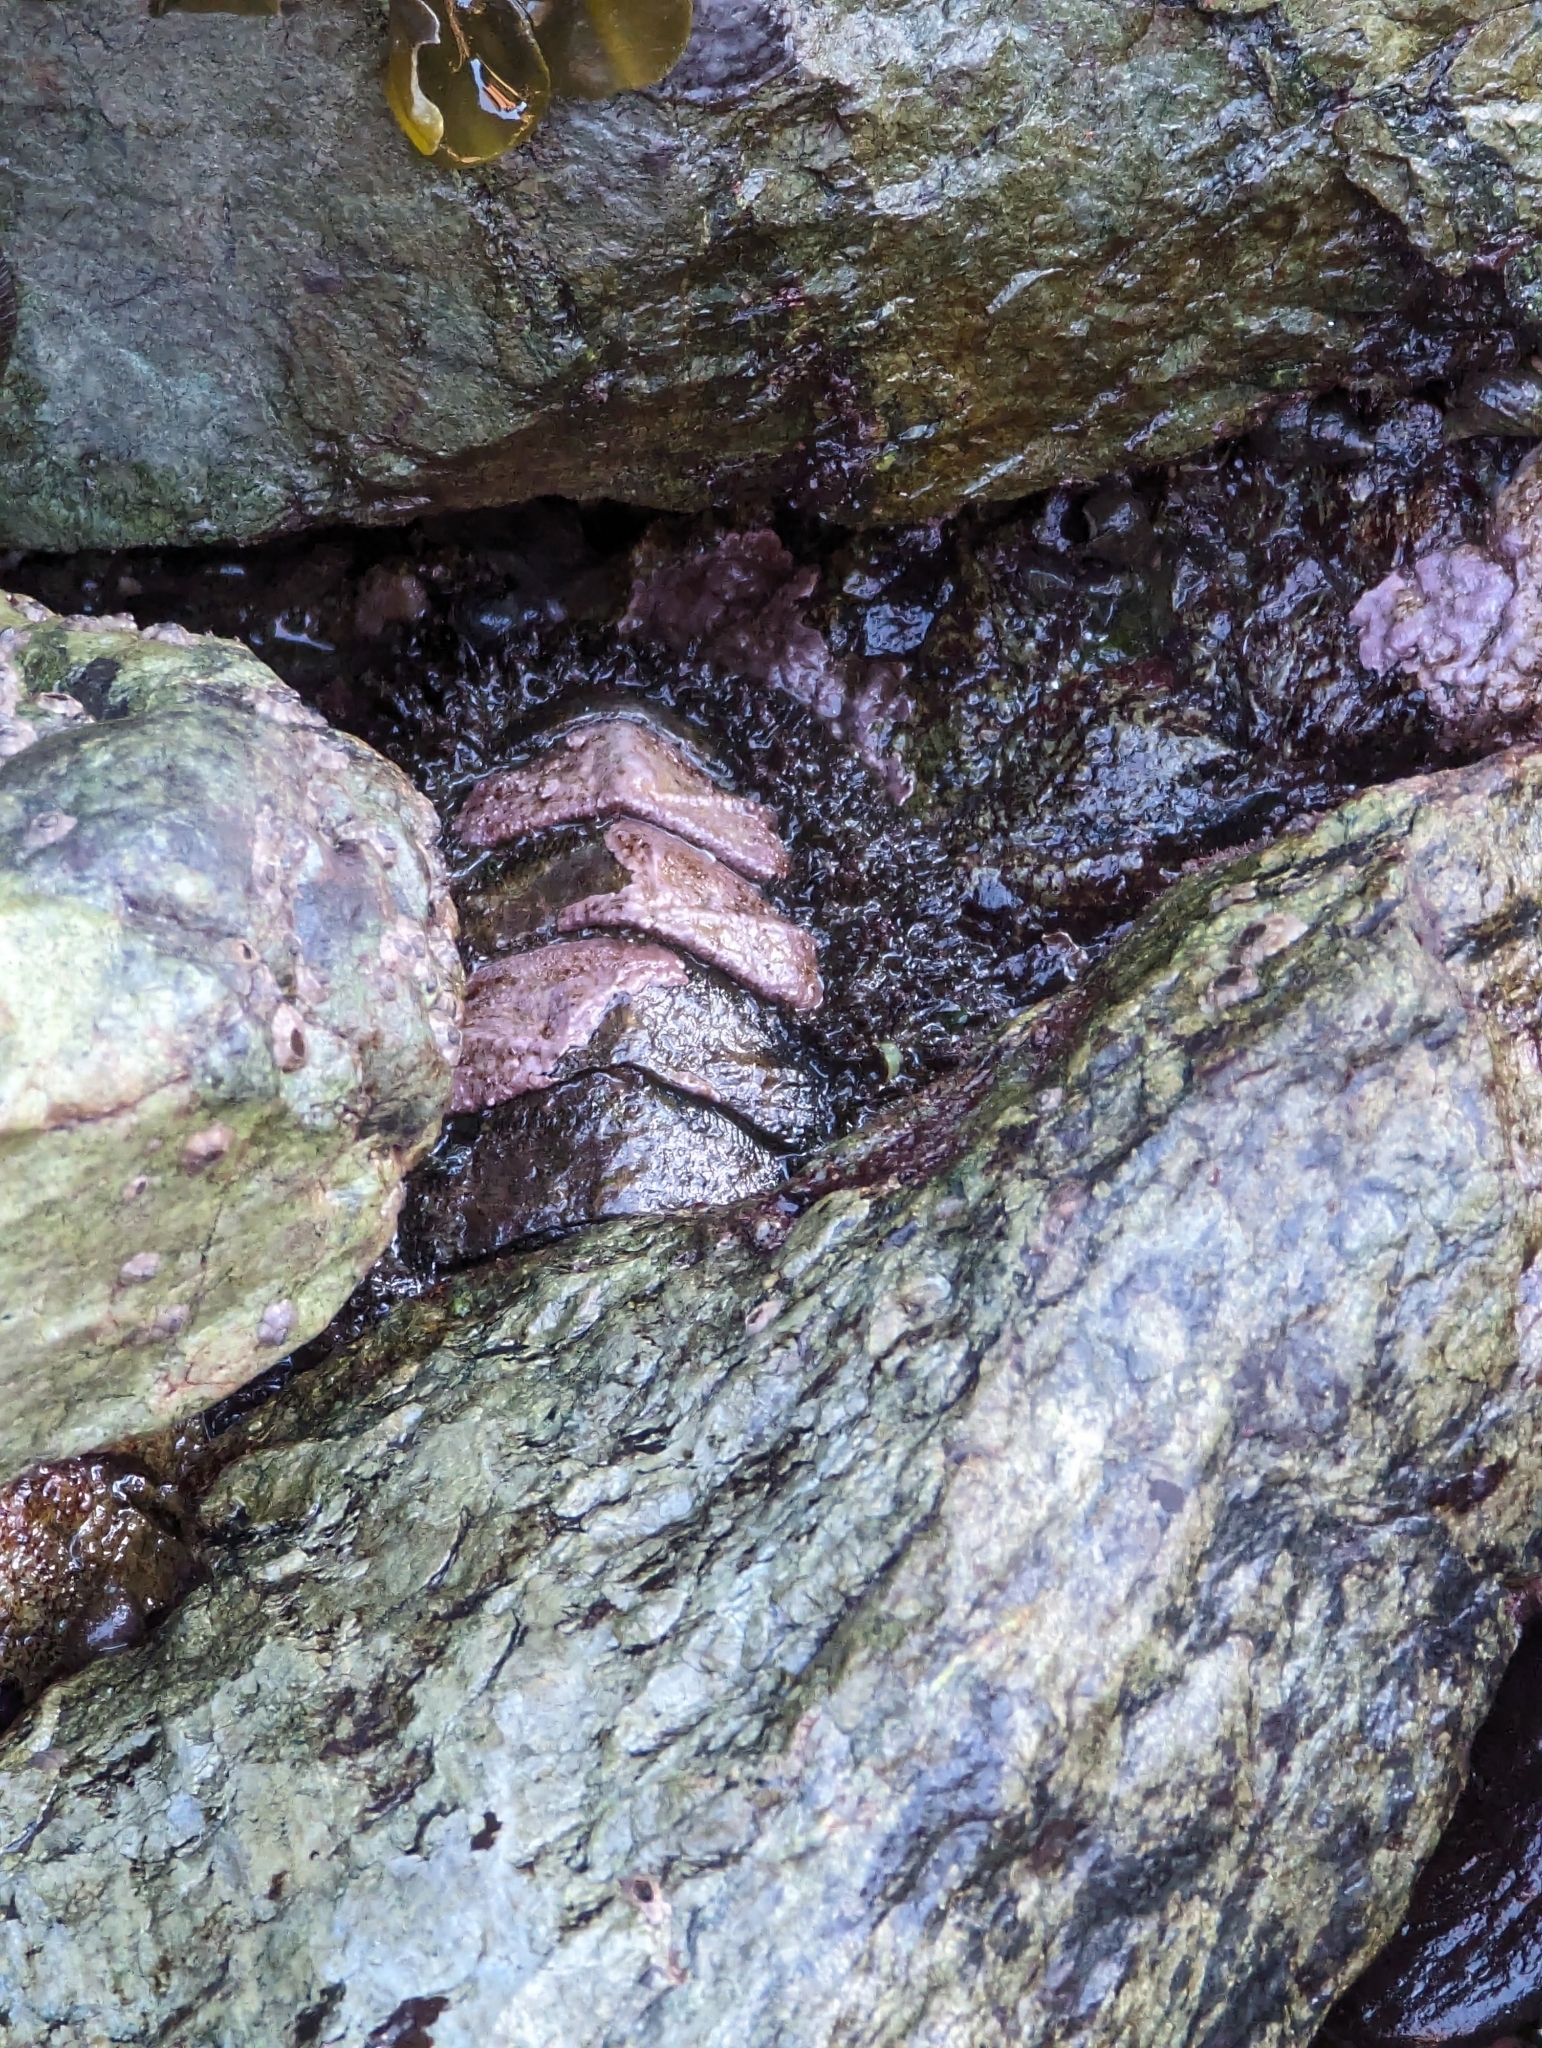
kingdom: Animalia
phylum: Mollusca
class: Polyplacophora
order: Chitonida
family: Mopaliidae
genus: Mopalia
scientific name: Mopalia muscosa
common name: Mossy chiton
